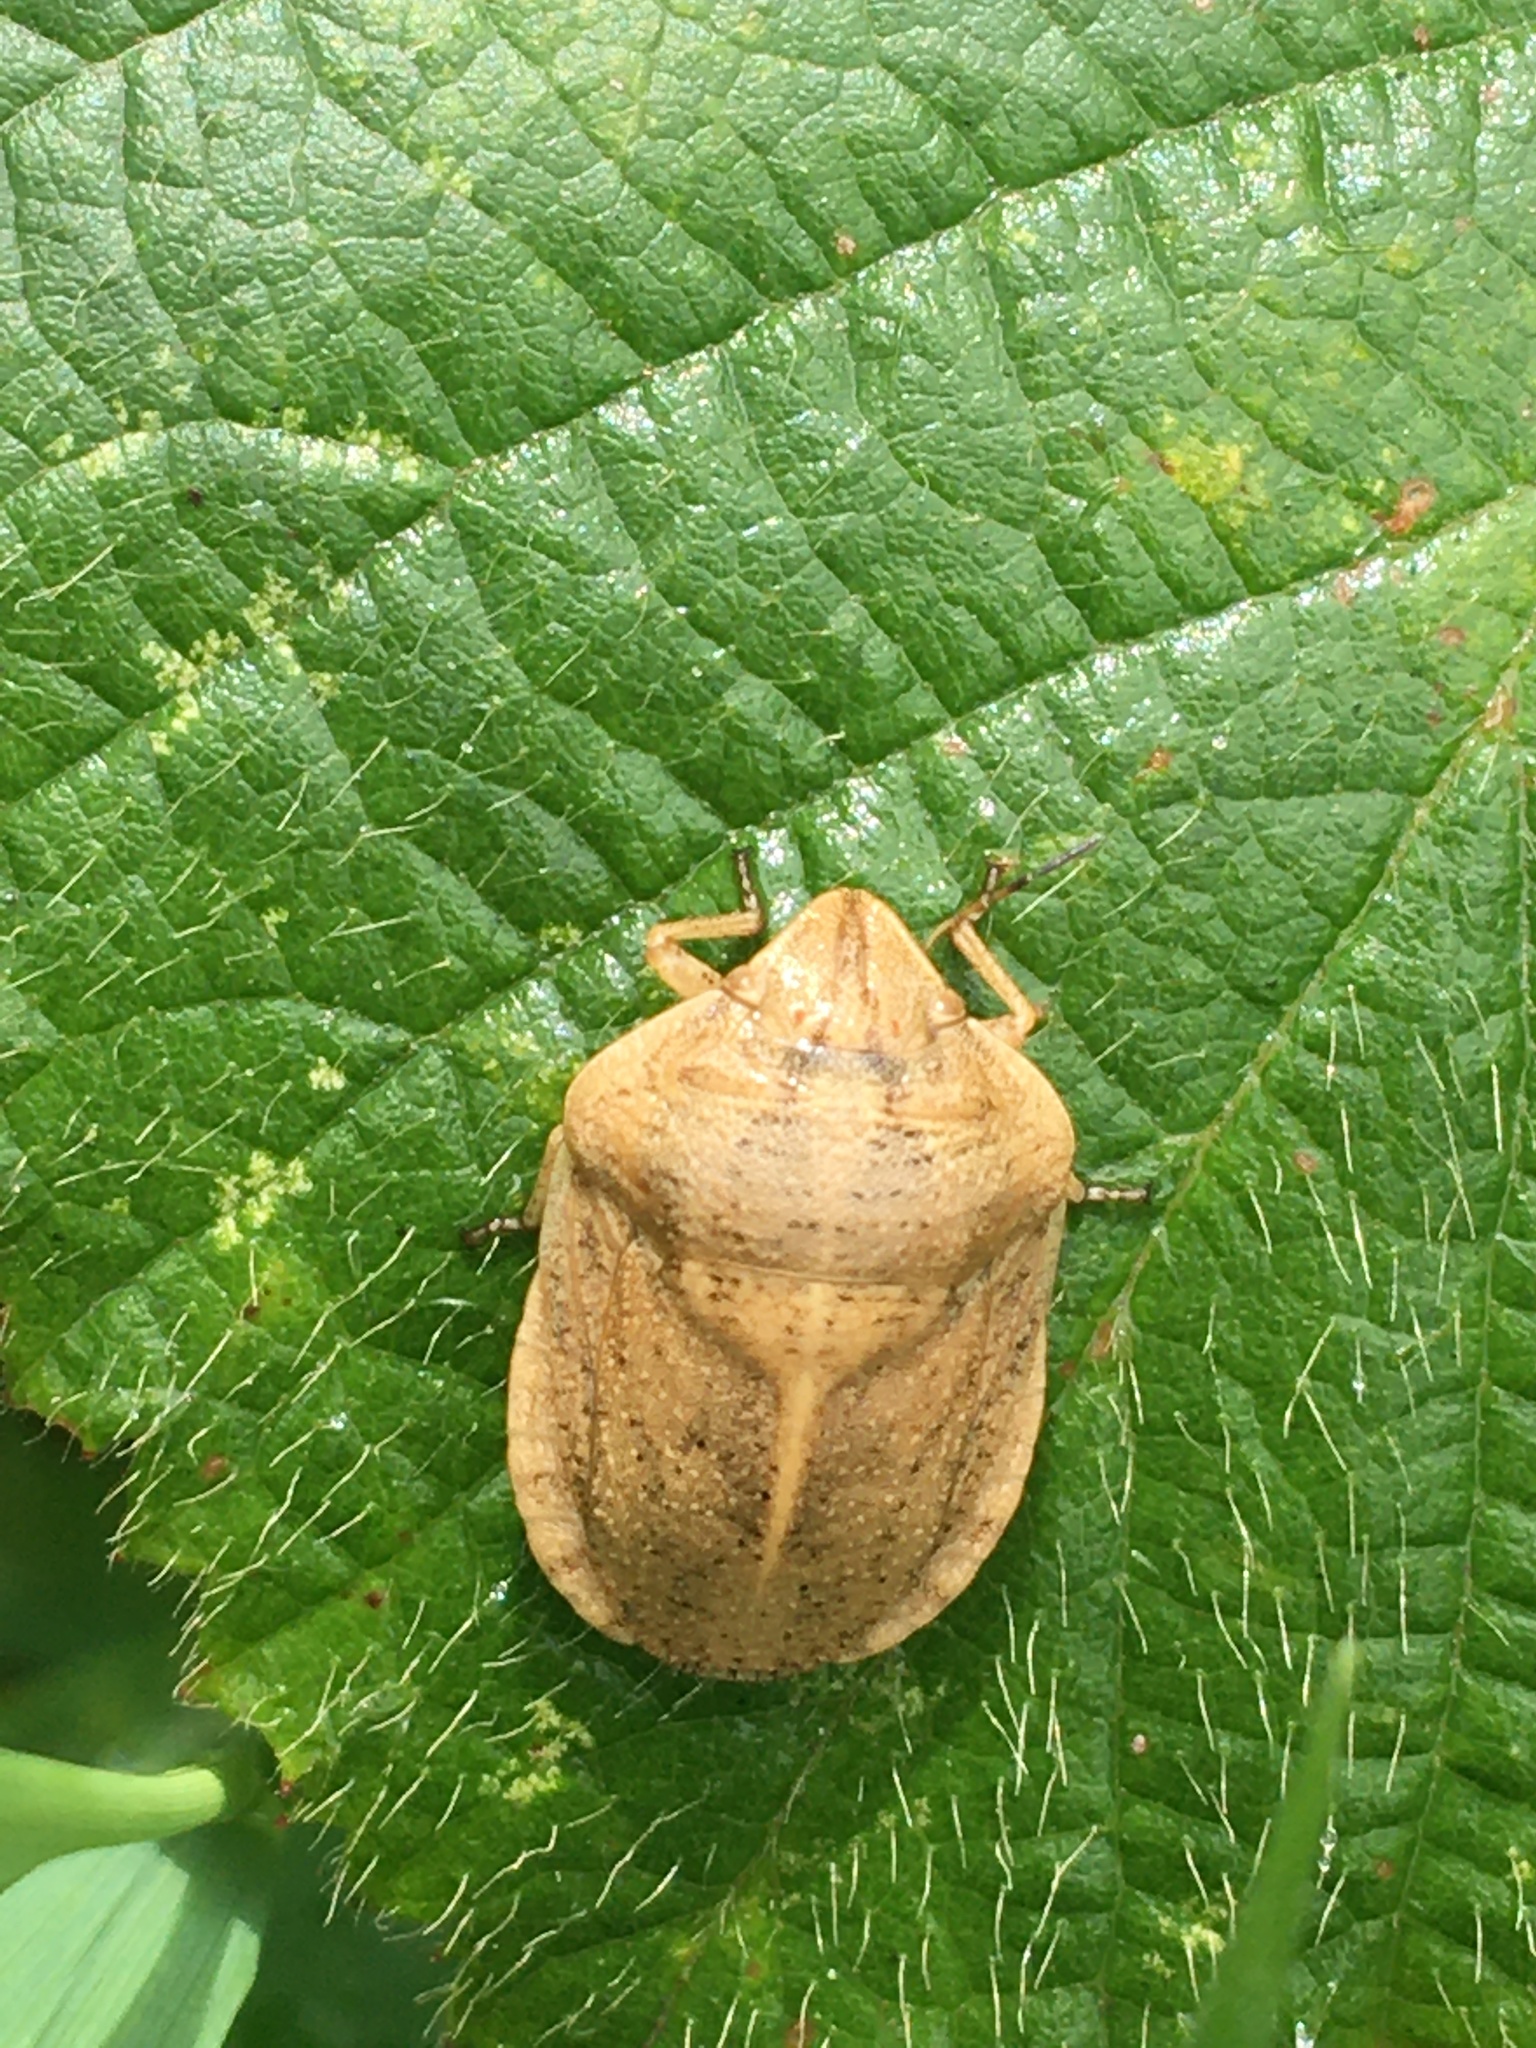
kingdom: Animalia
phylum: Arthropoda
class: Insecta
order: Hemiptera
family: Scutelleridae
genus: Eurygaster
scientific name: Eurygaster austriaca
